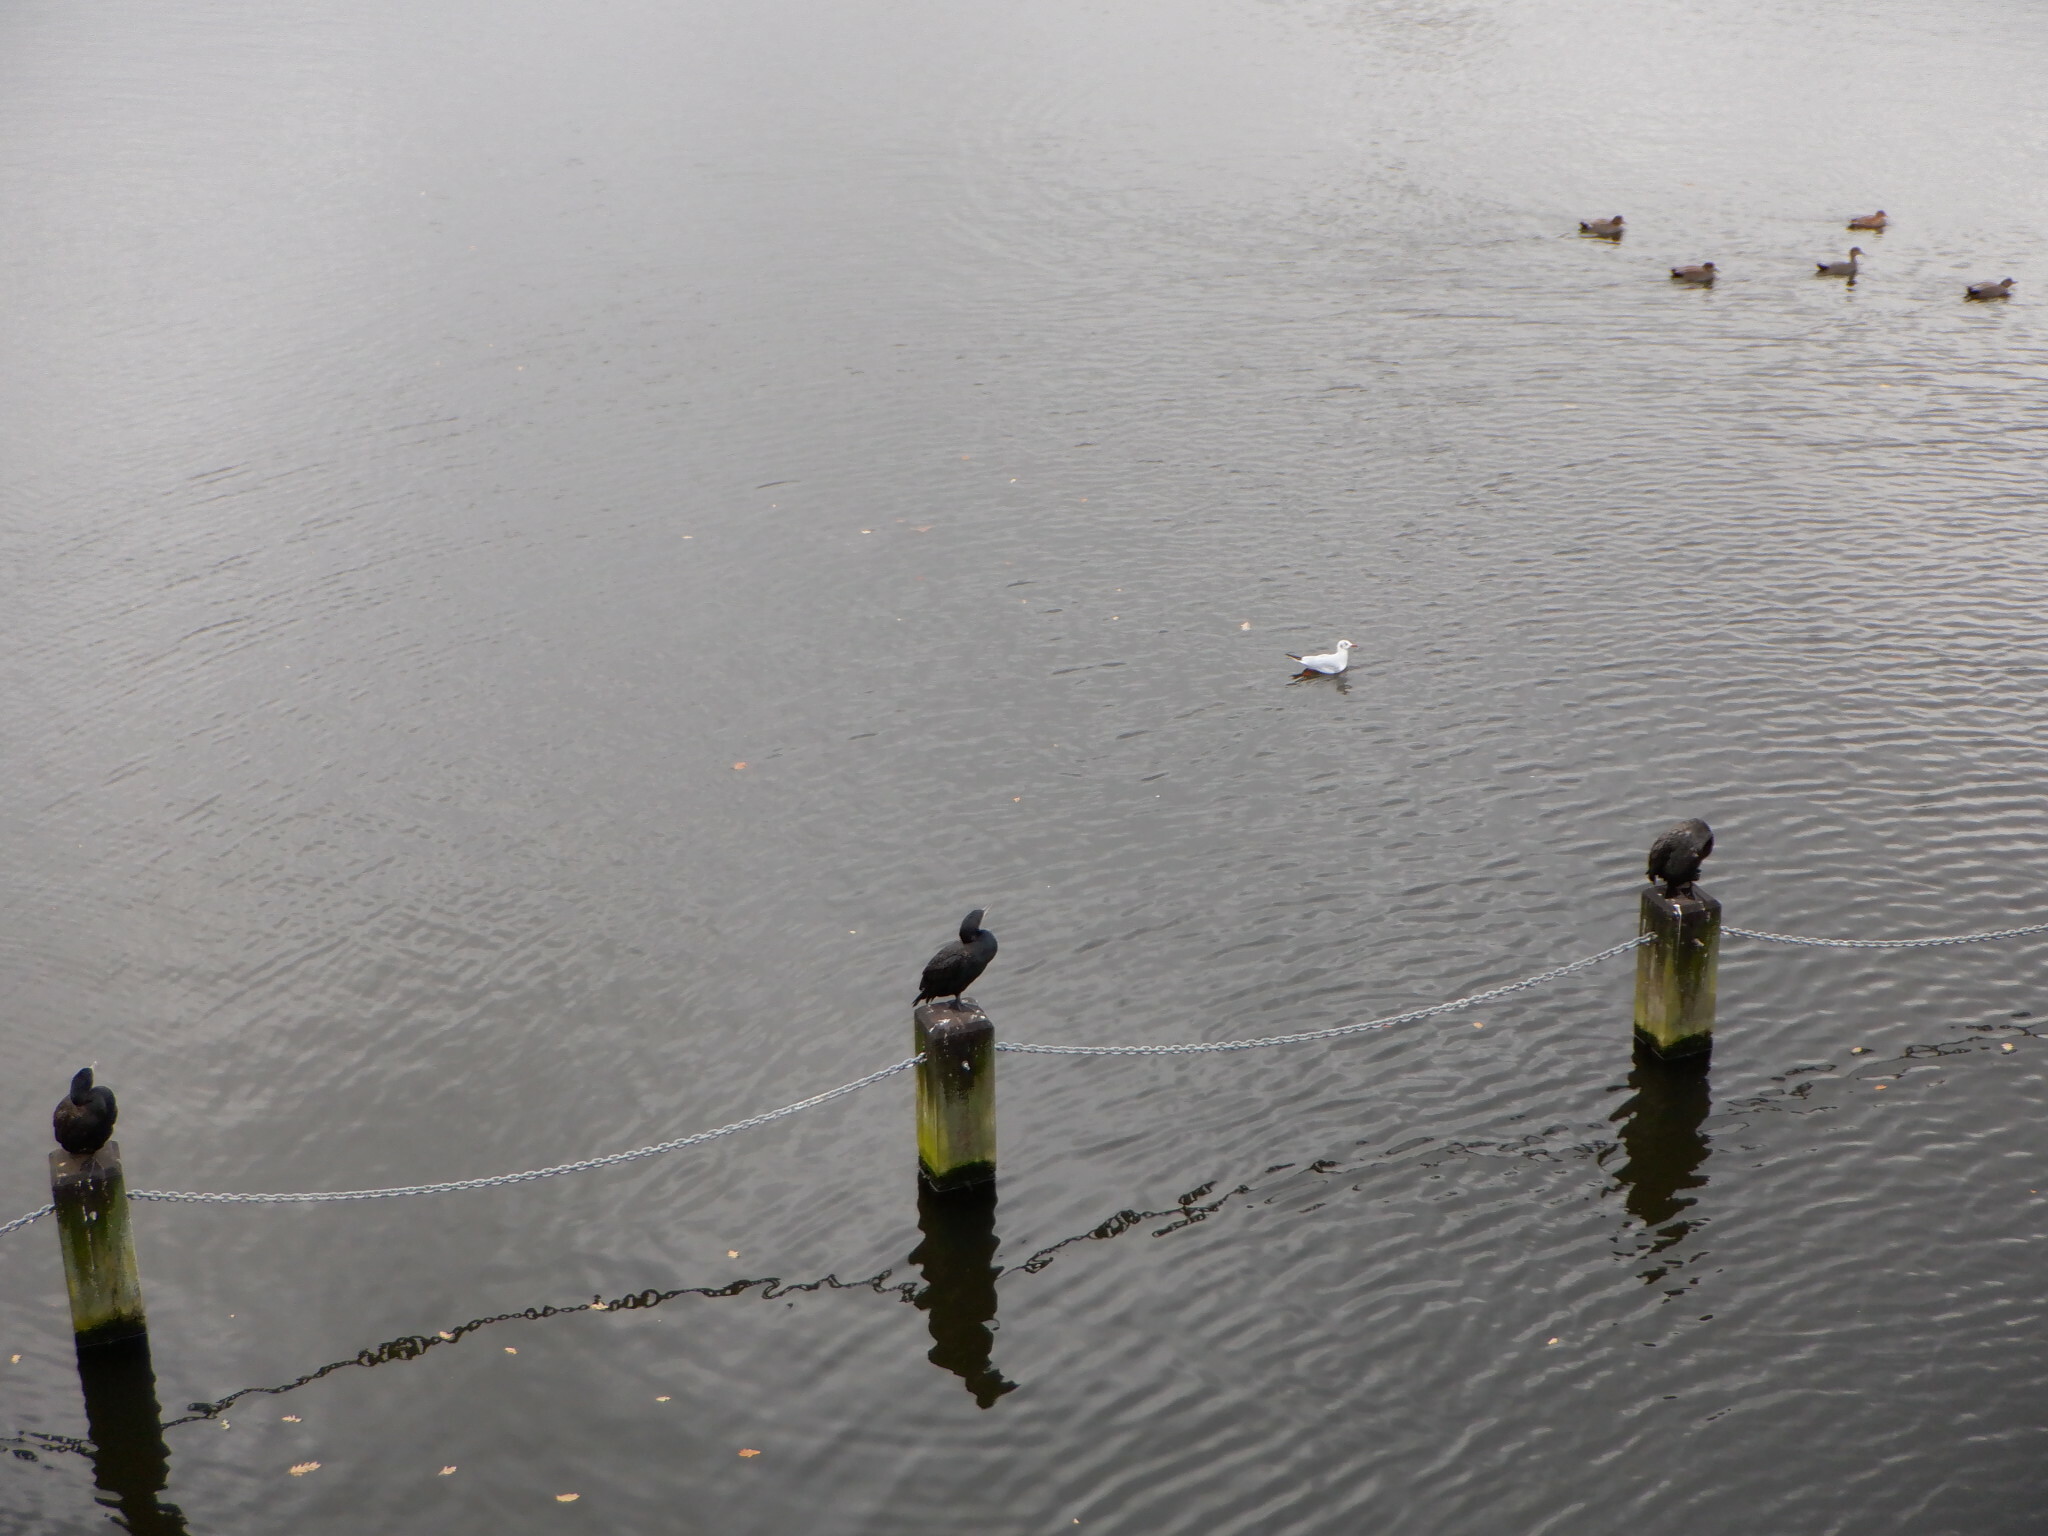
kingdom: Animalia
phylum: Chordata
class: Aves
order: Suliformes
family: Phalacrocoracidae
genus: Phalacrocorax
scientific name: Phalacrocorax carbo
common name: Great cormorant
